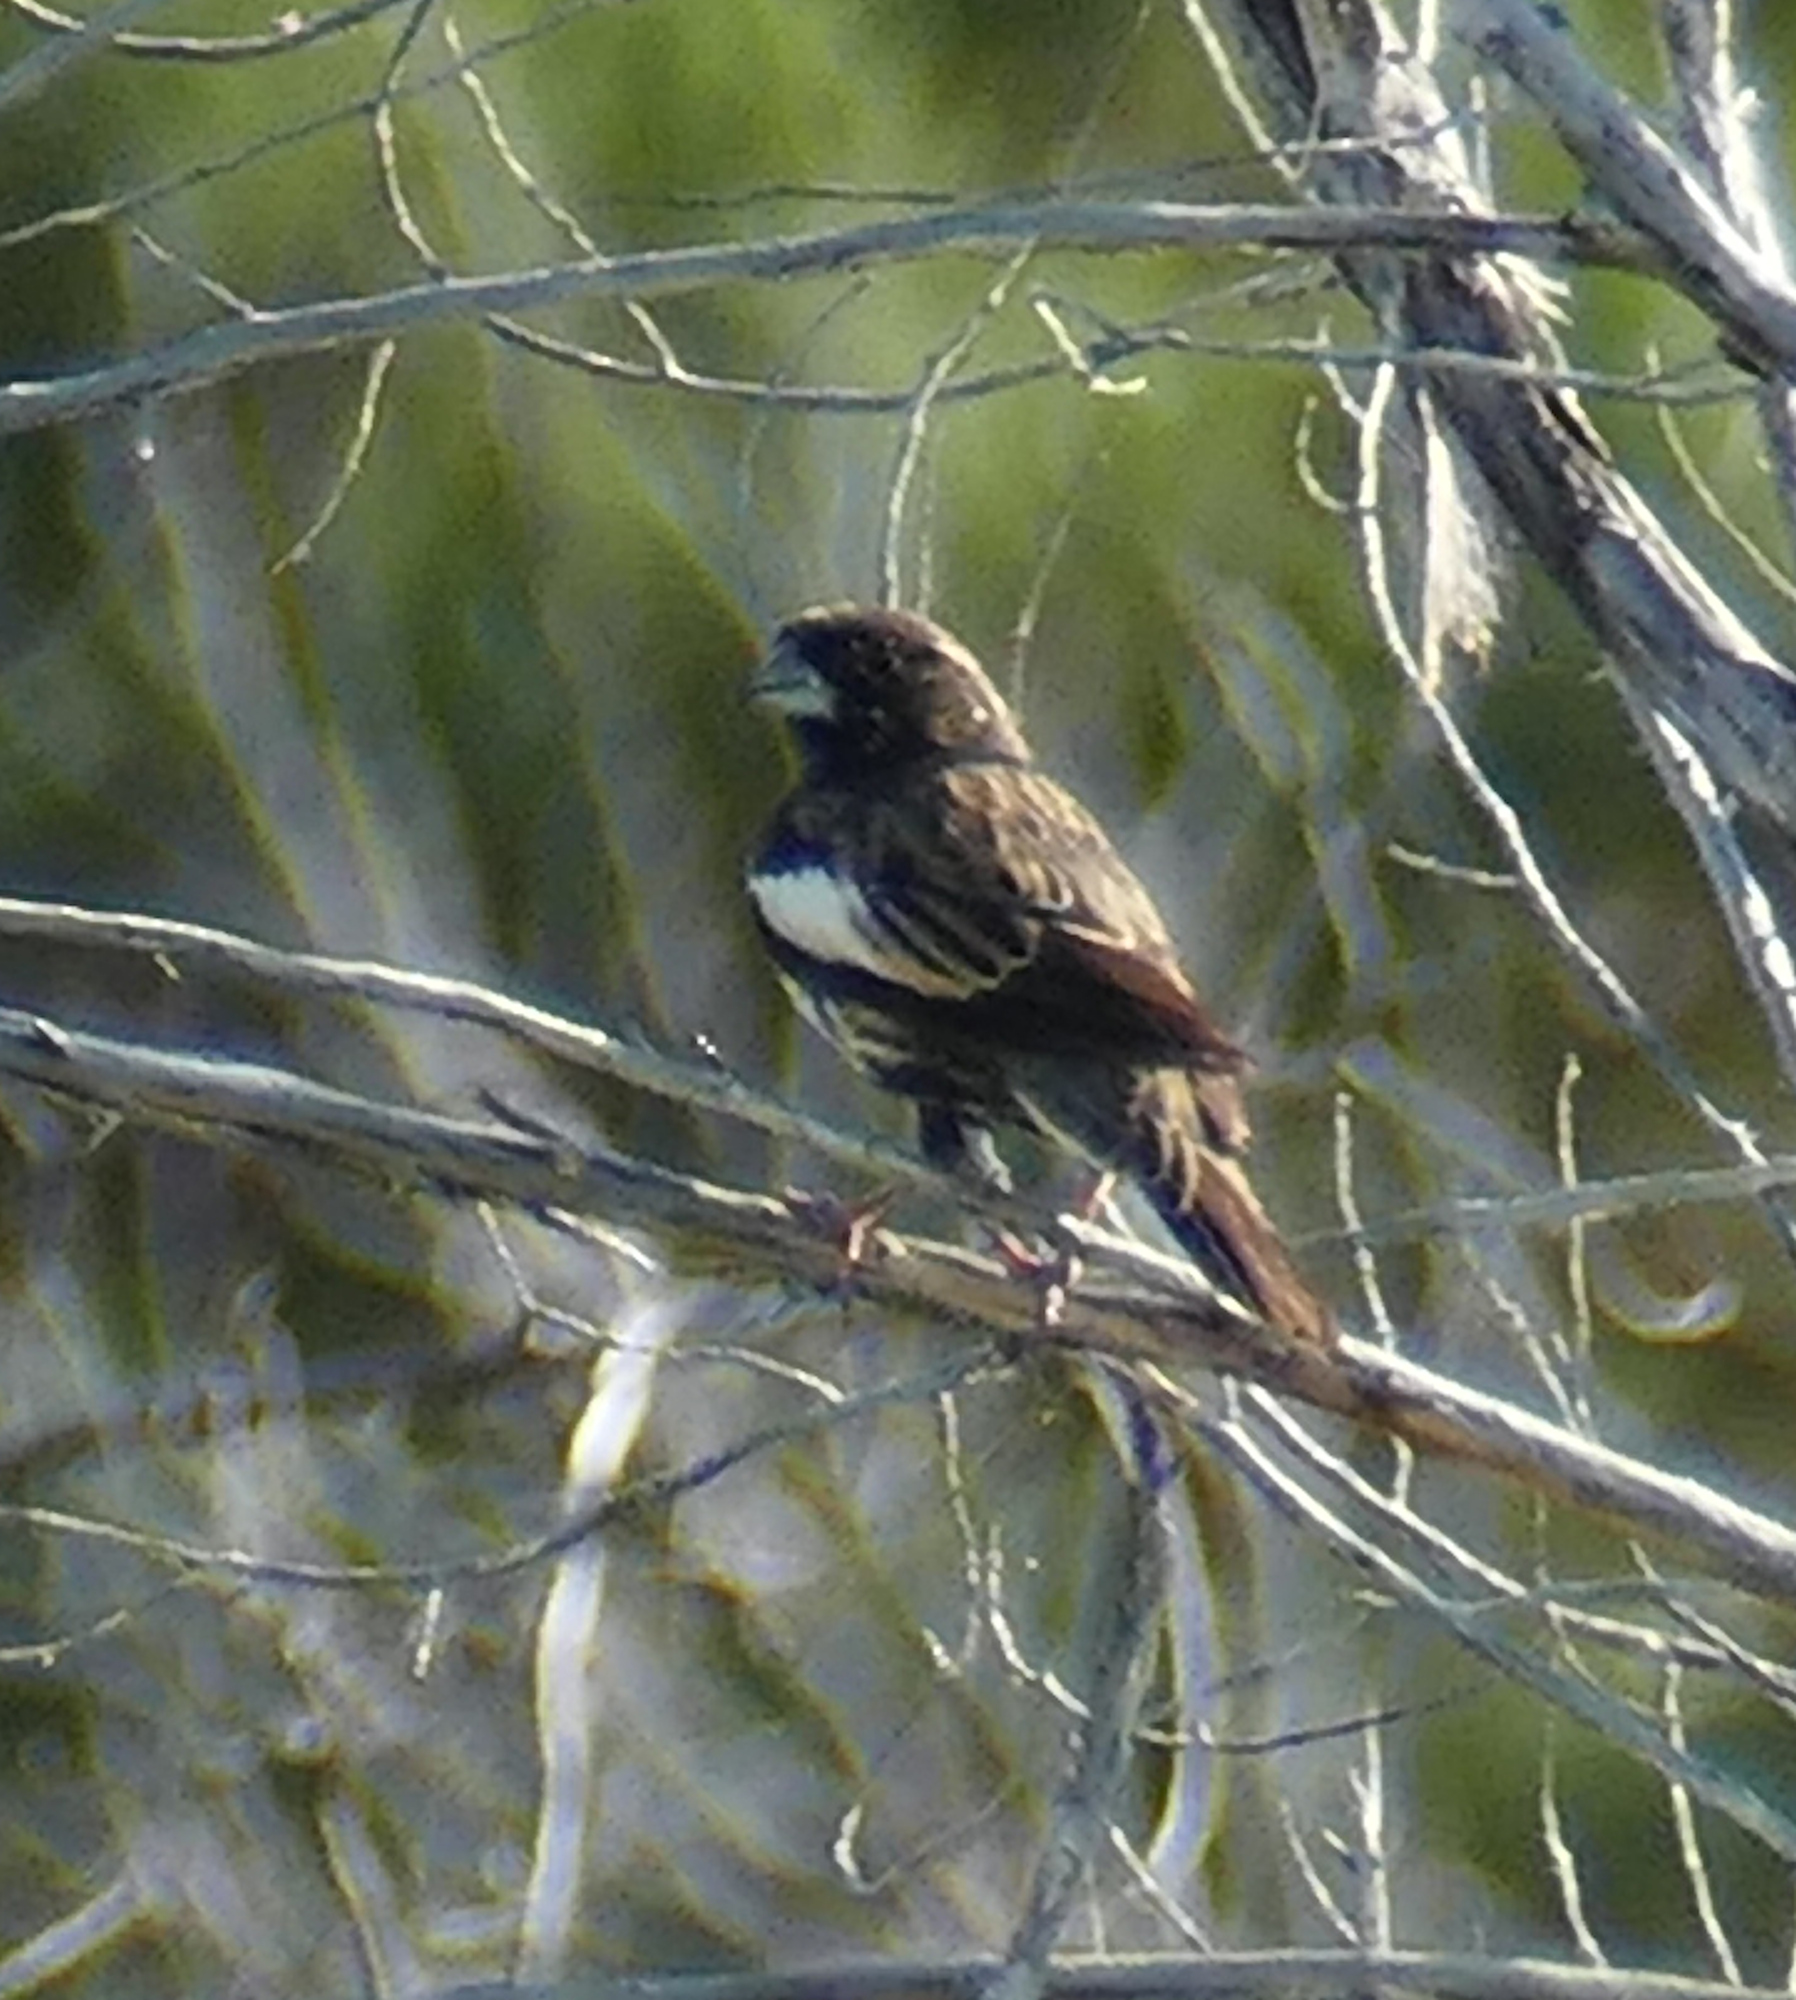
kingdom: Animalia
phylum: Chordata
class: Aves
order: Passeriformes
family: Passerellidae
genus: Calamospiza
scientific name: Calamospiza melanocorys
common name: Lark bunting
